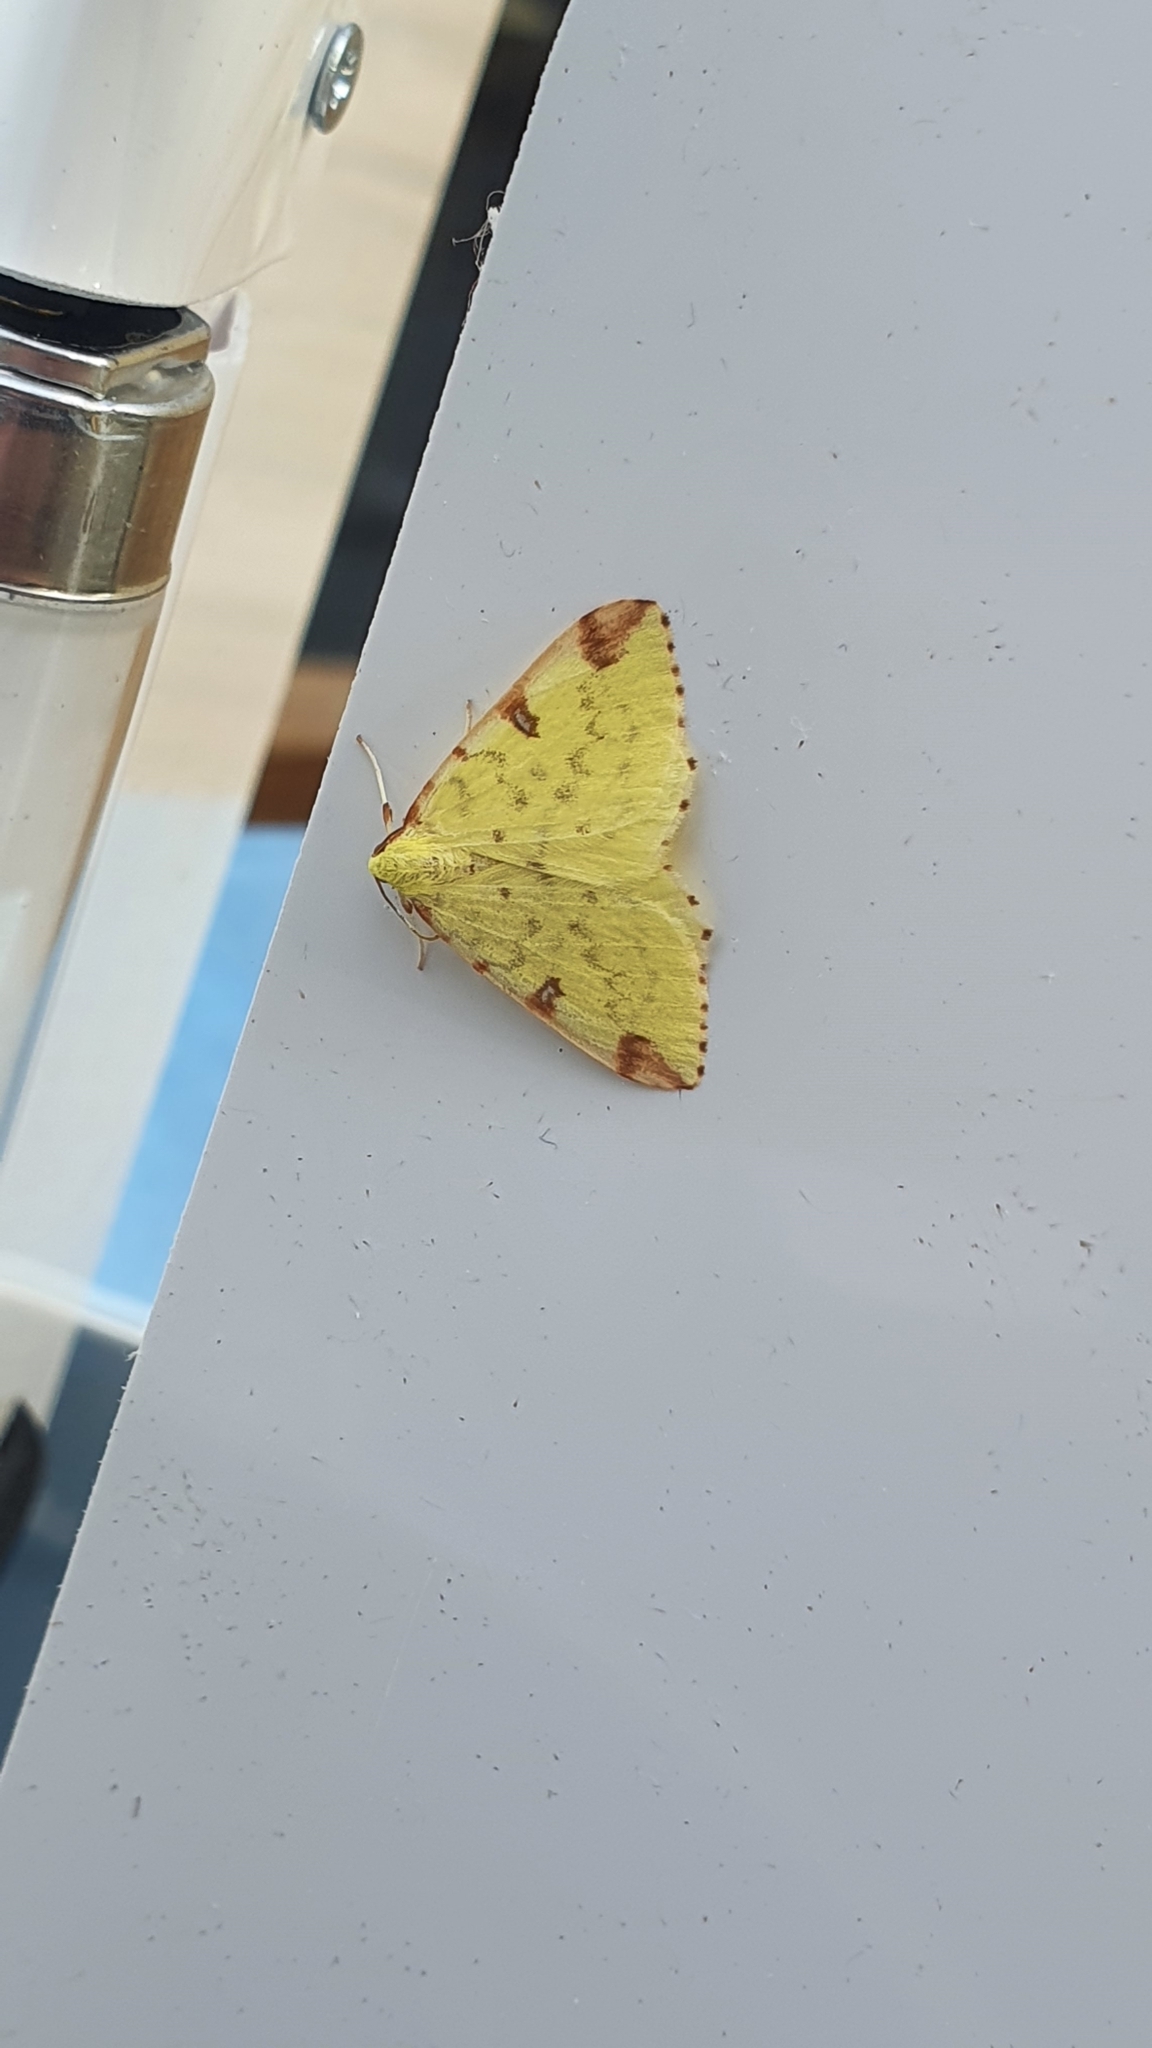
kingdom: Animalia
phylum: Arthropoda
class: Insecta
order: Lepidoptera
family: Geometridae
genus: Opisthograptis
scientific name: Opisthograptis luteolata
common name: Brimstone moth
